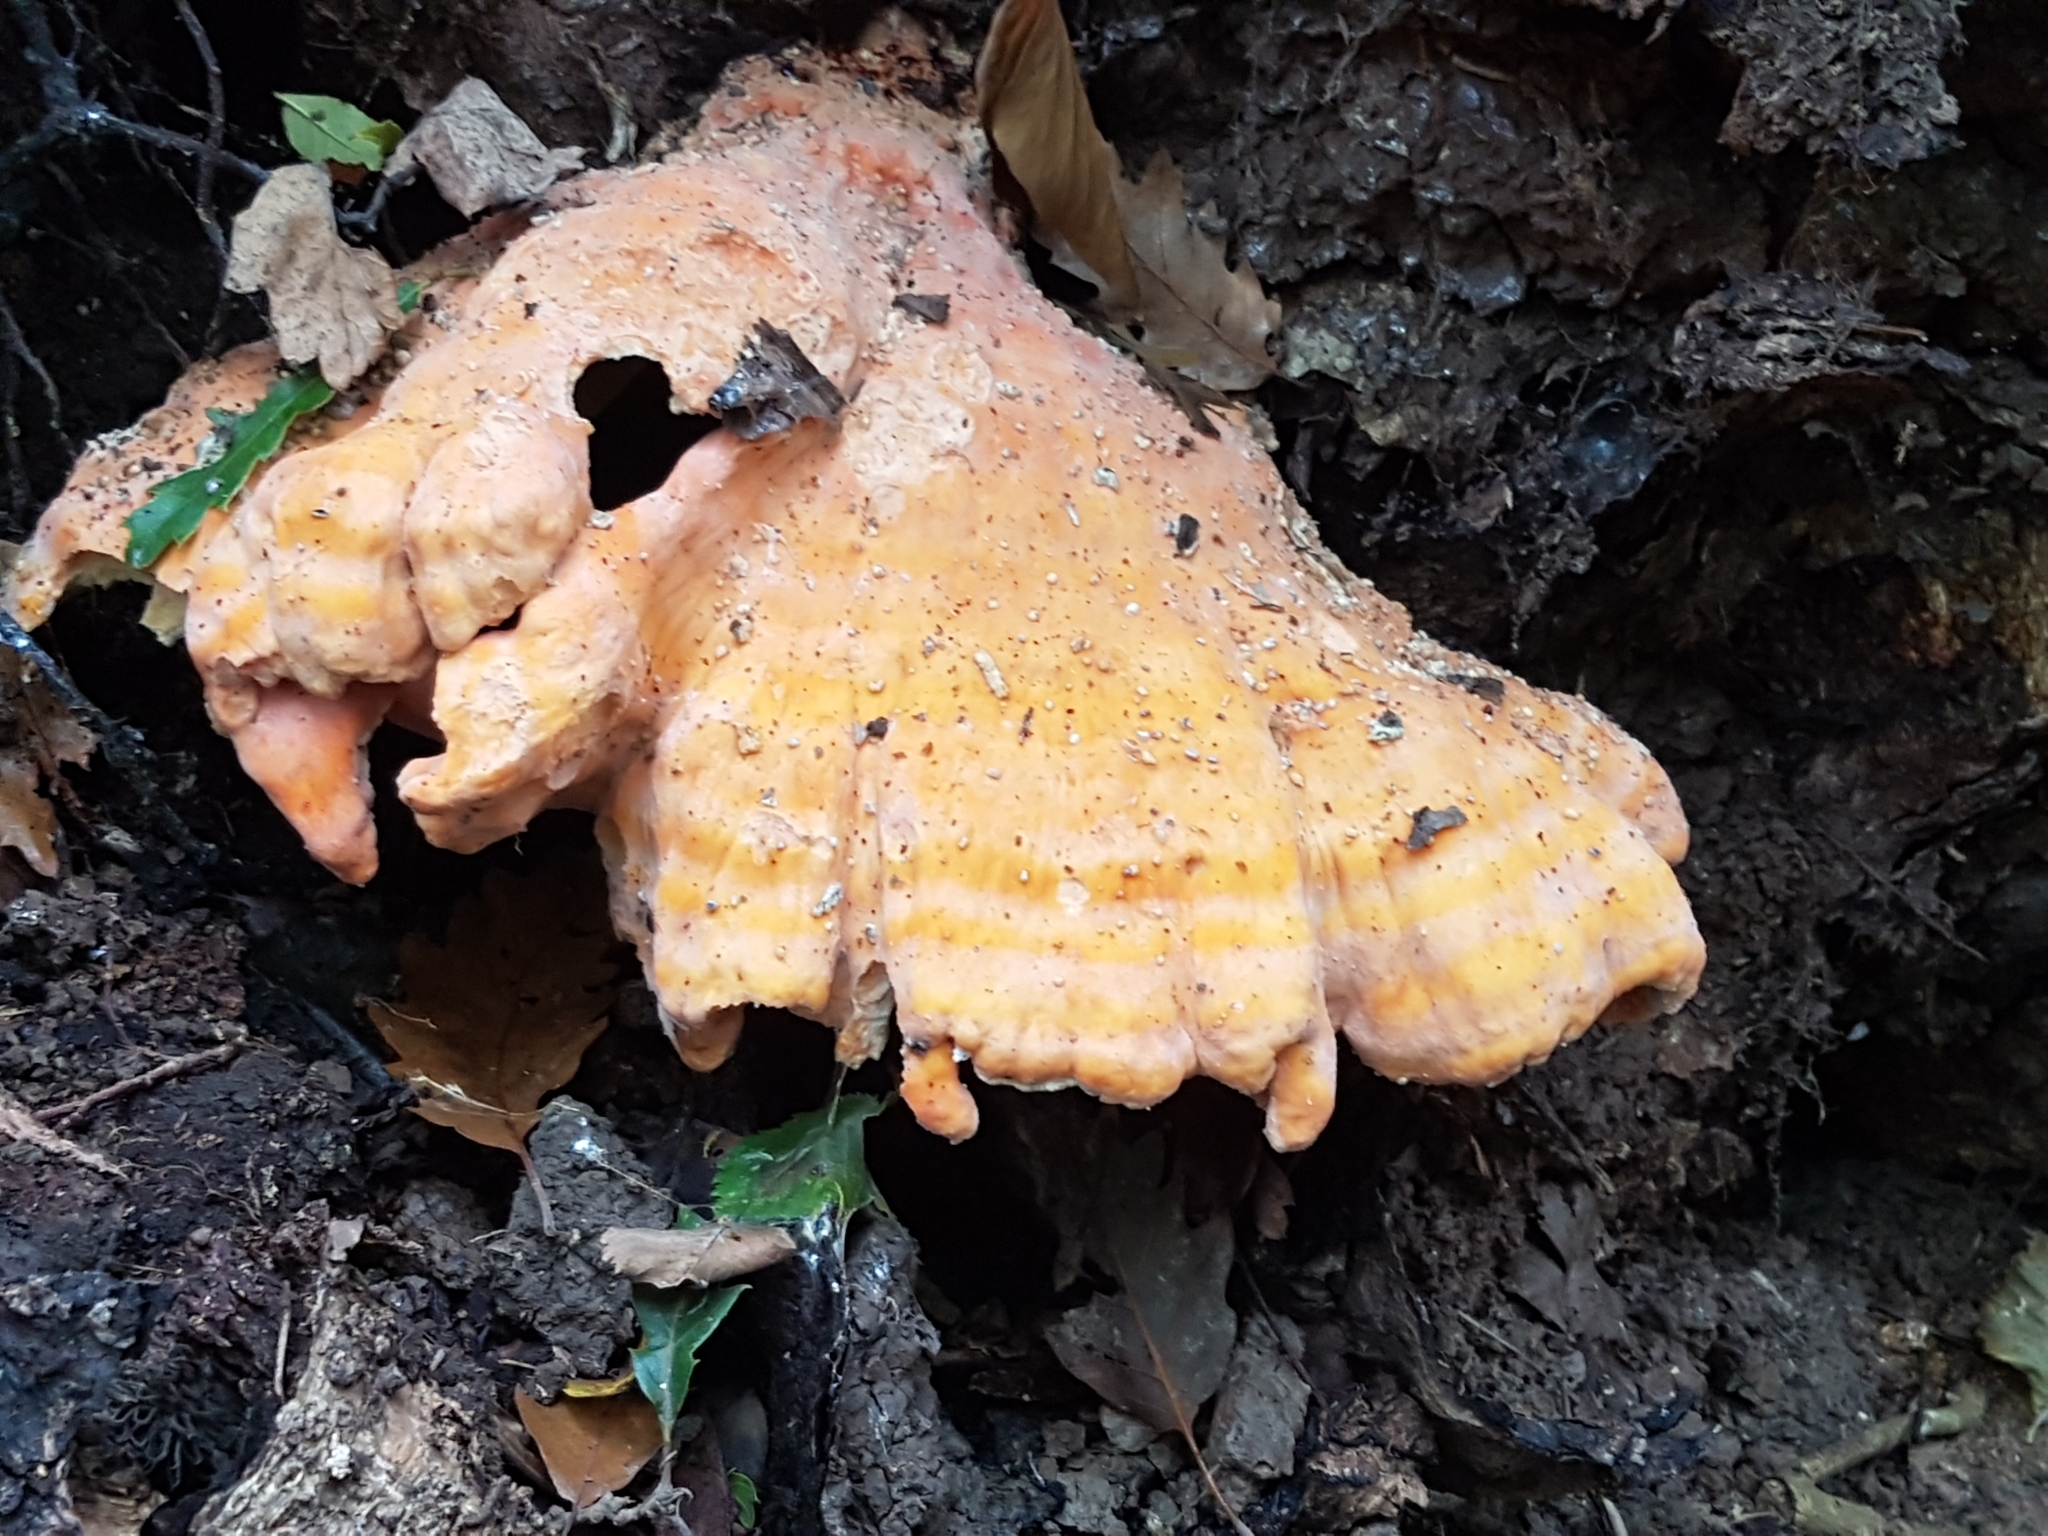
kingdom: Fungi
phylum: Basidiomycota
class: Agaricomycetes
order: Polyporales
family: Laetiporaceae
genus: Laetiporus
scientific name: Laetiporus sulphureus
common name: Chicken of the woods
